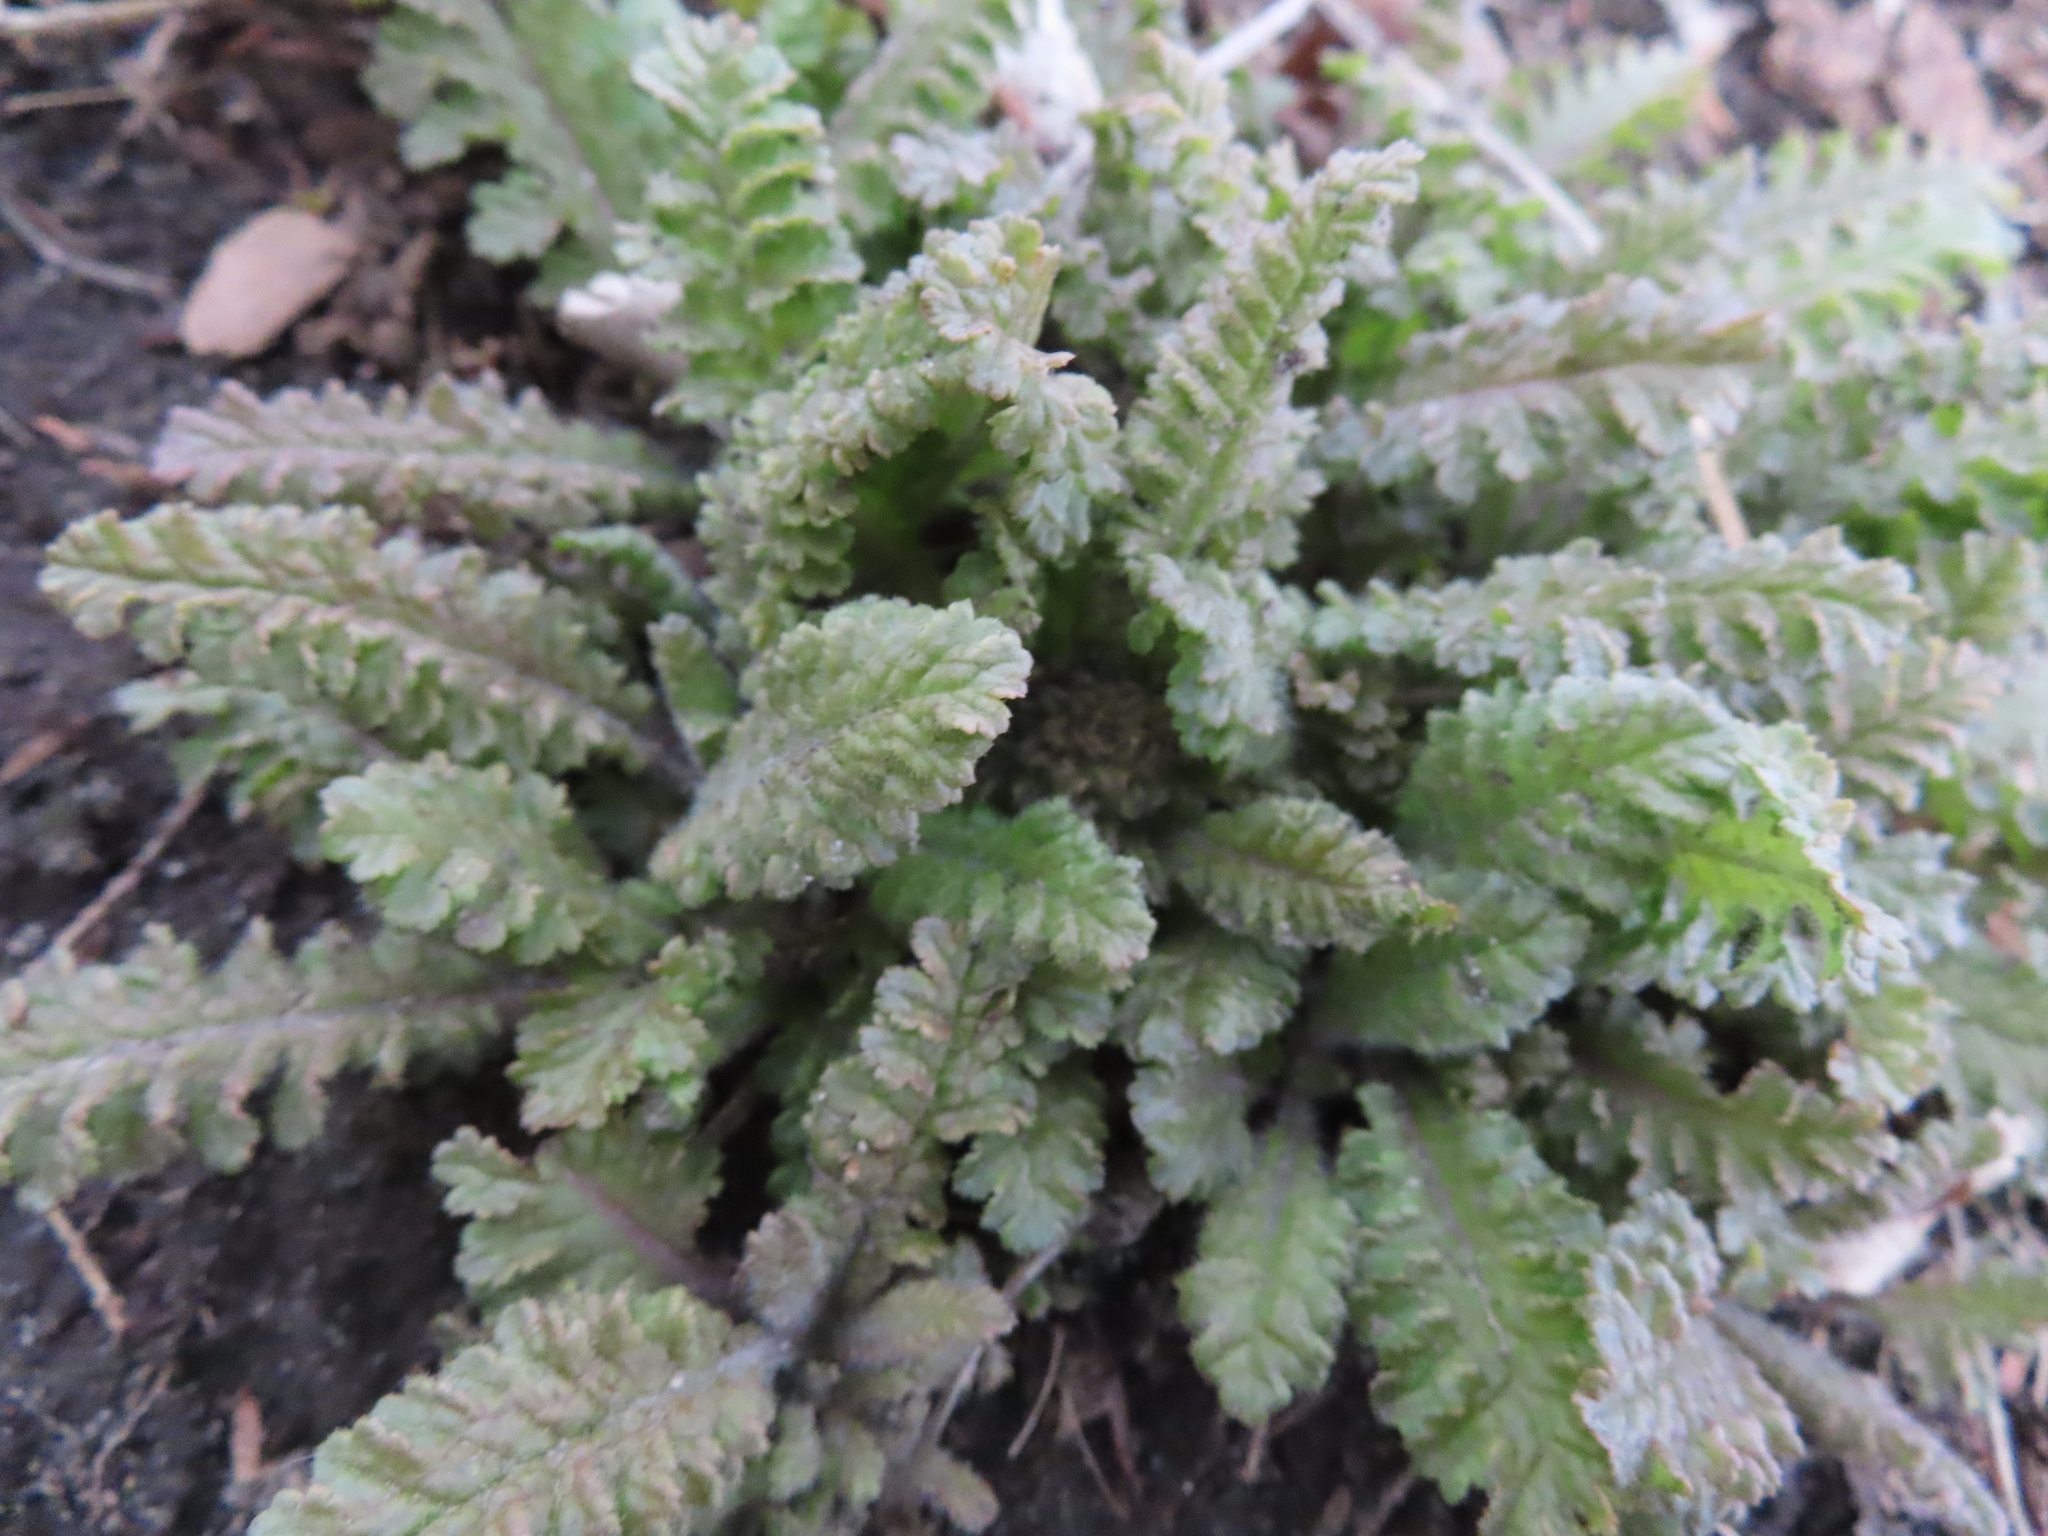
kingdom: Plantae
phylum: Tracheophyta
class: Magnoliopsida
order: Lamiales
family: Orobanchaceae
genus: Pedicularis
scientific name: Pedicularis canadensis
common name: Early lousewort
